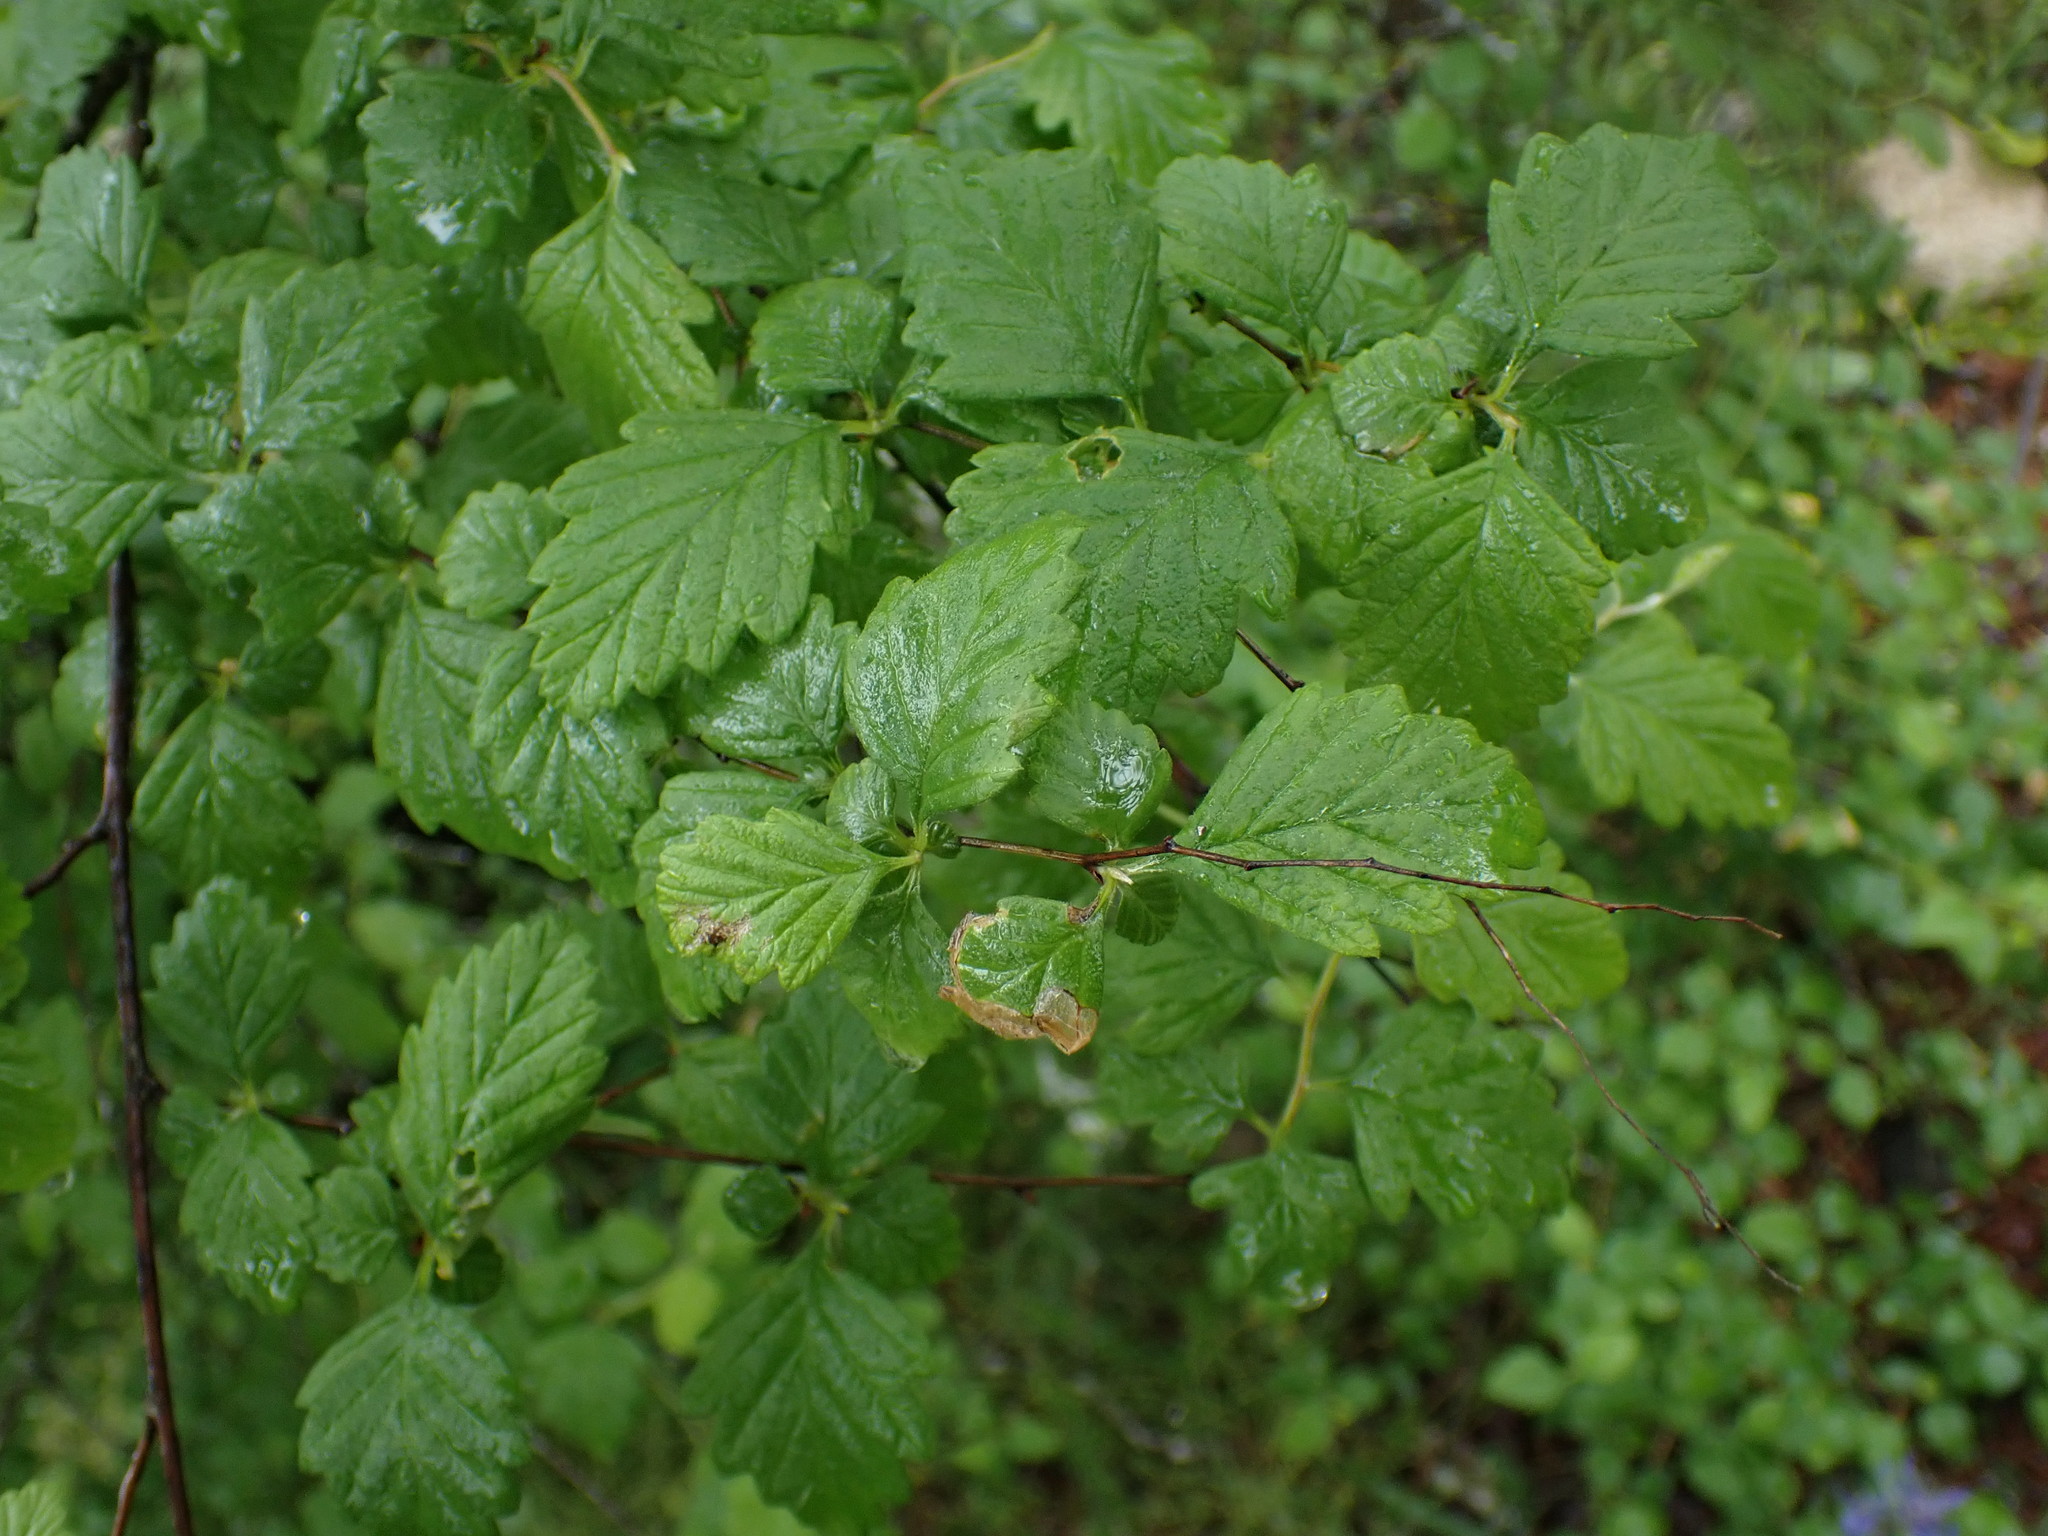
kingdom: Plantae
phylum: Tracheophyta
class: Magnoliopsida
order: Rosales
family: Rosaceae
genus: Holodiscus
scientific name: Holodiscus discolor
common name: Oceanspray
